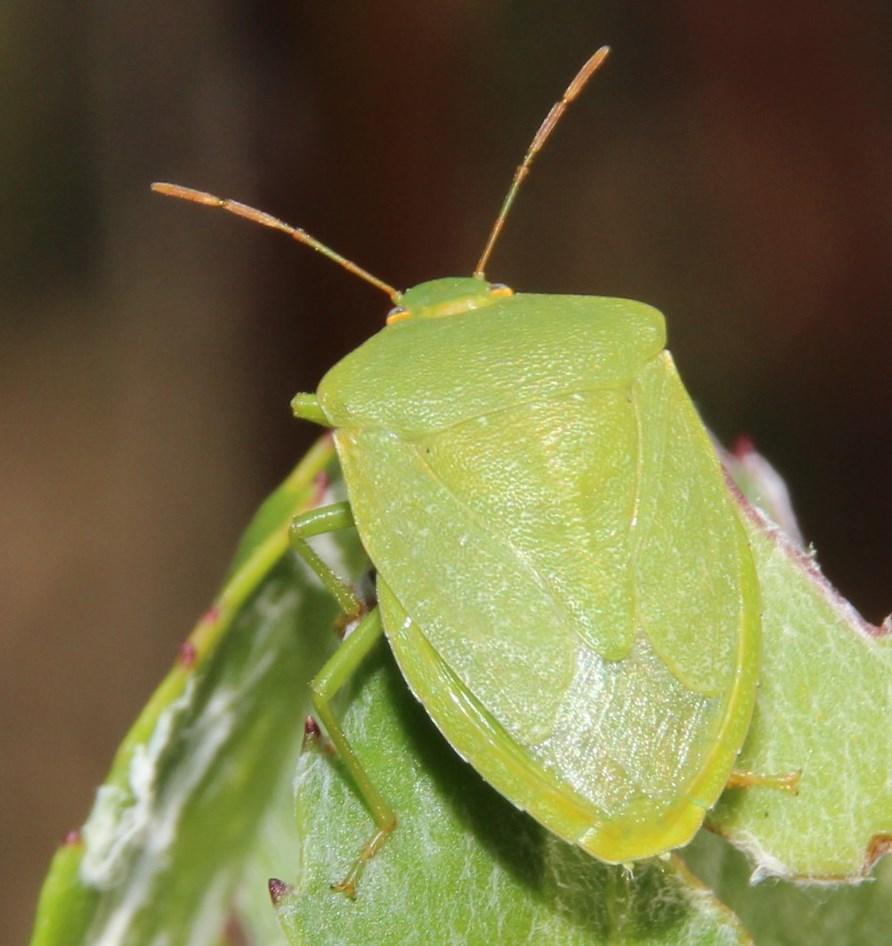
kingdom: Animalia
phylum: Arthropoda
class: Insecta
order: Hemiptera
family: Pentatomidae
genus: Nezara
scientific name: Nezara viridula
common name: Southern green stink bug
